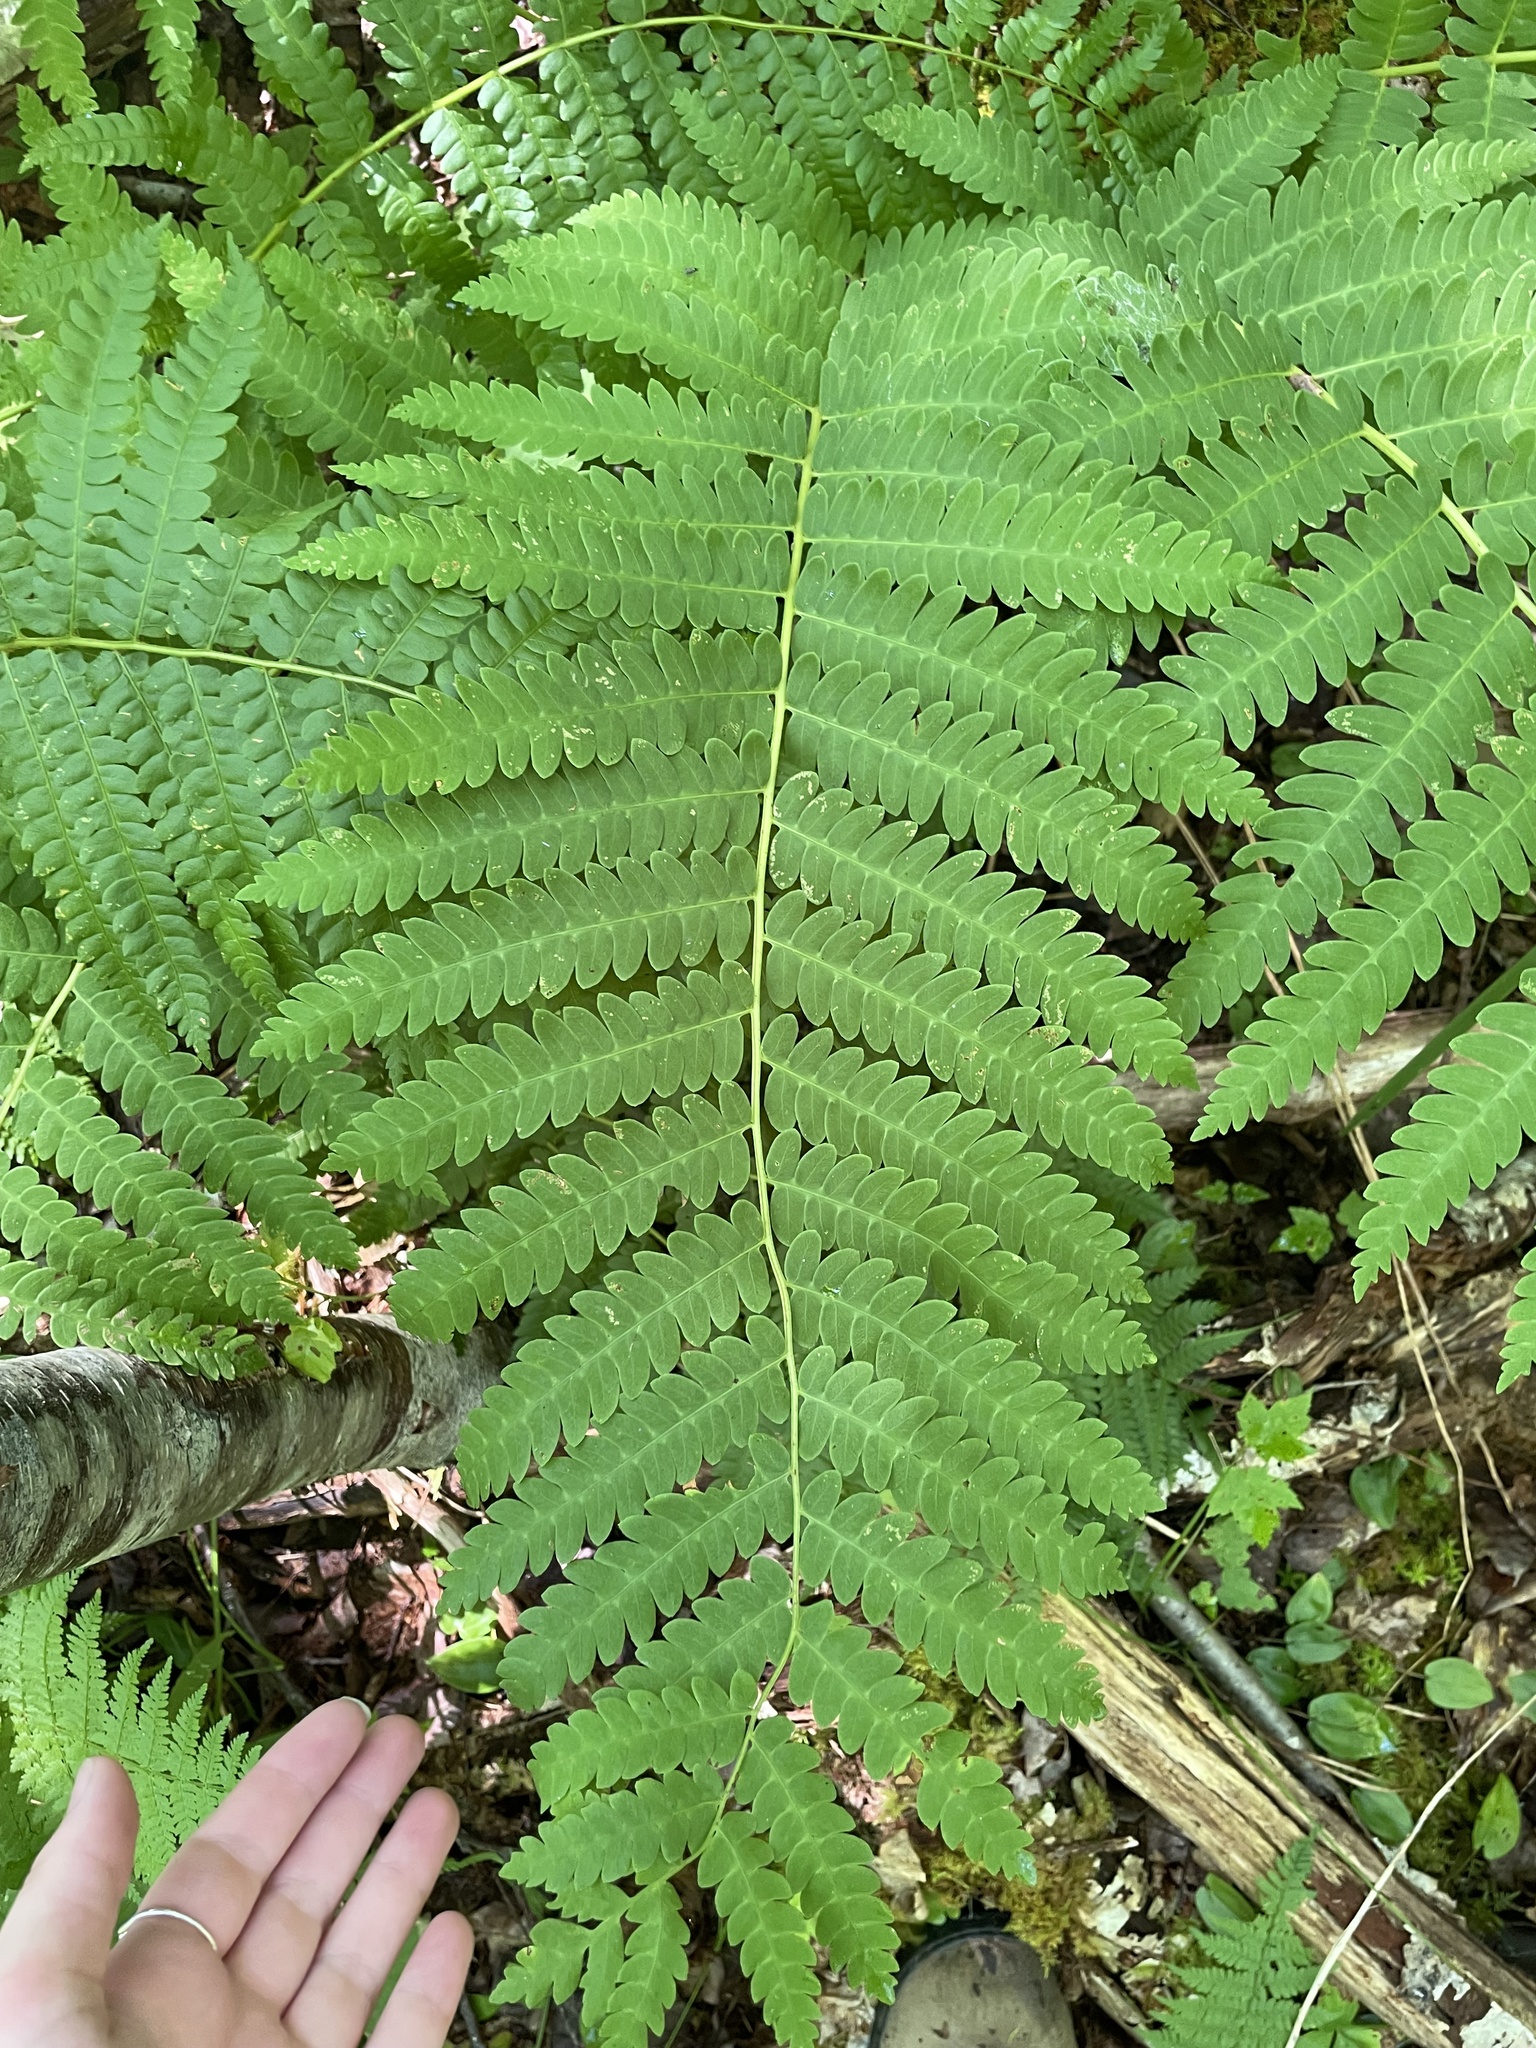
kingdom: Plantae
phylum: Tracheophyta
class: Polypodiopsida
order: Osmundales
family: Osmundaceae
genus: Claytosmunda
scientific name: Claytosmunda claytoniana
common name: Clayton's fern
